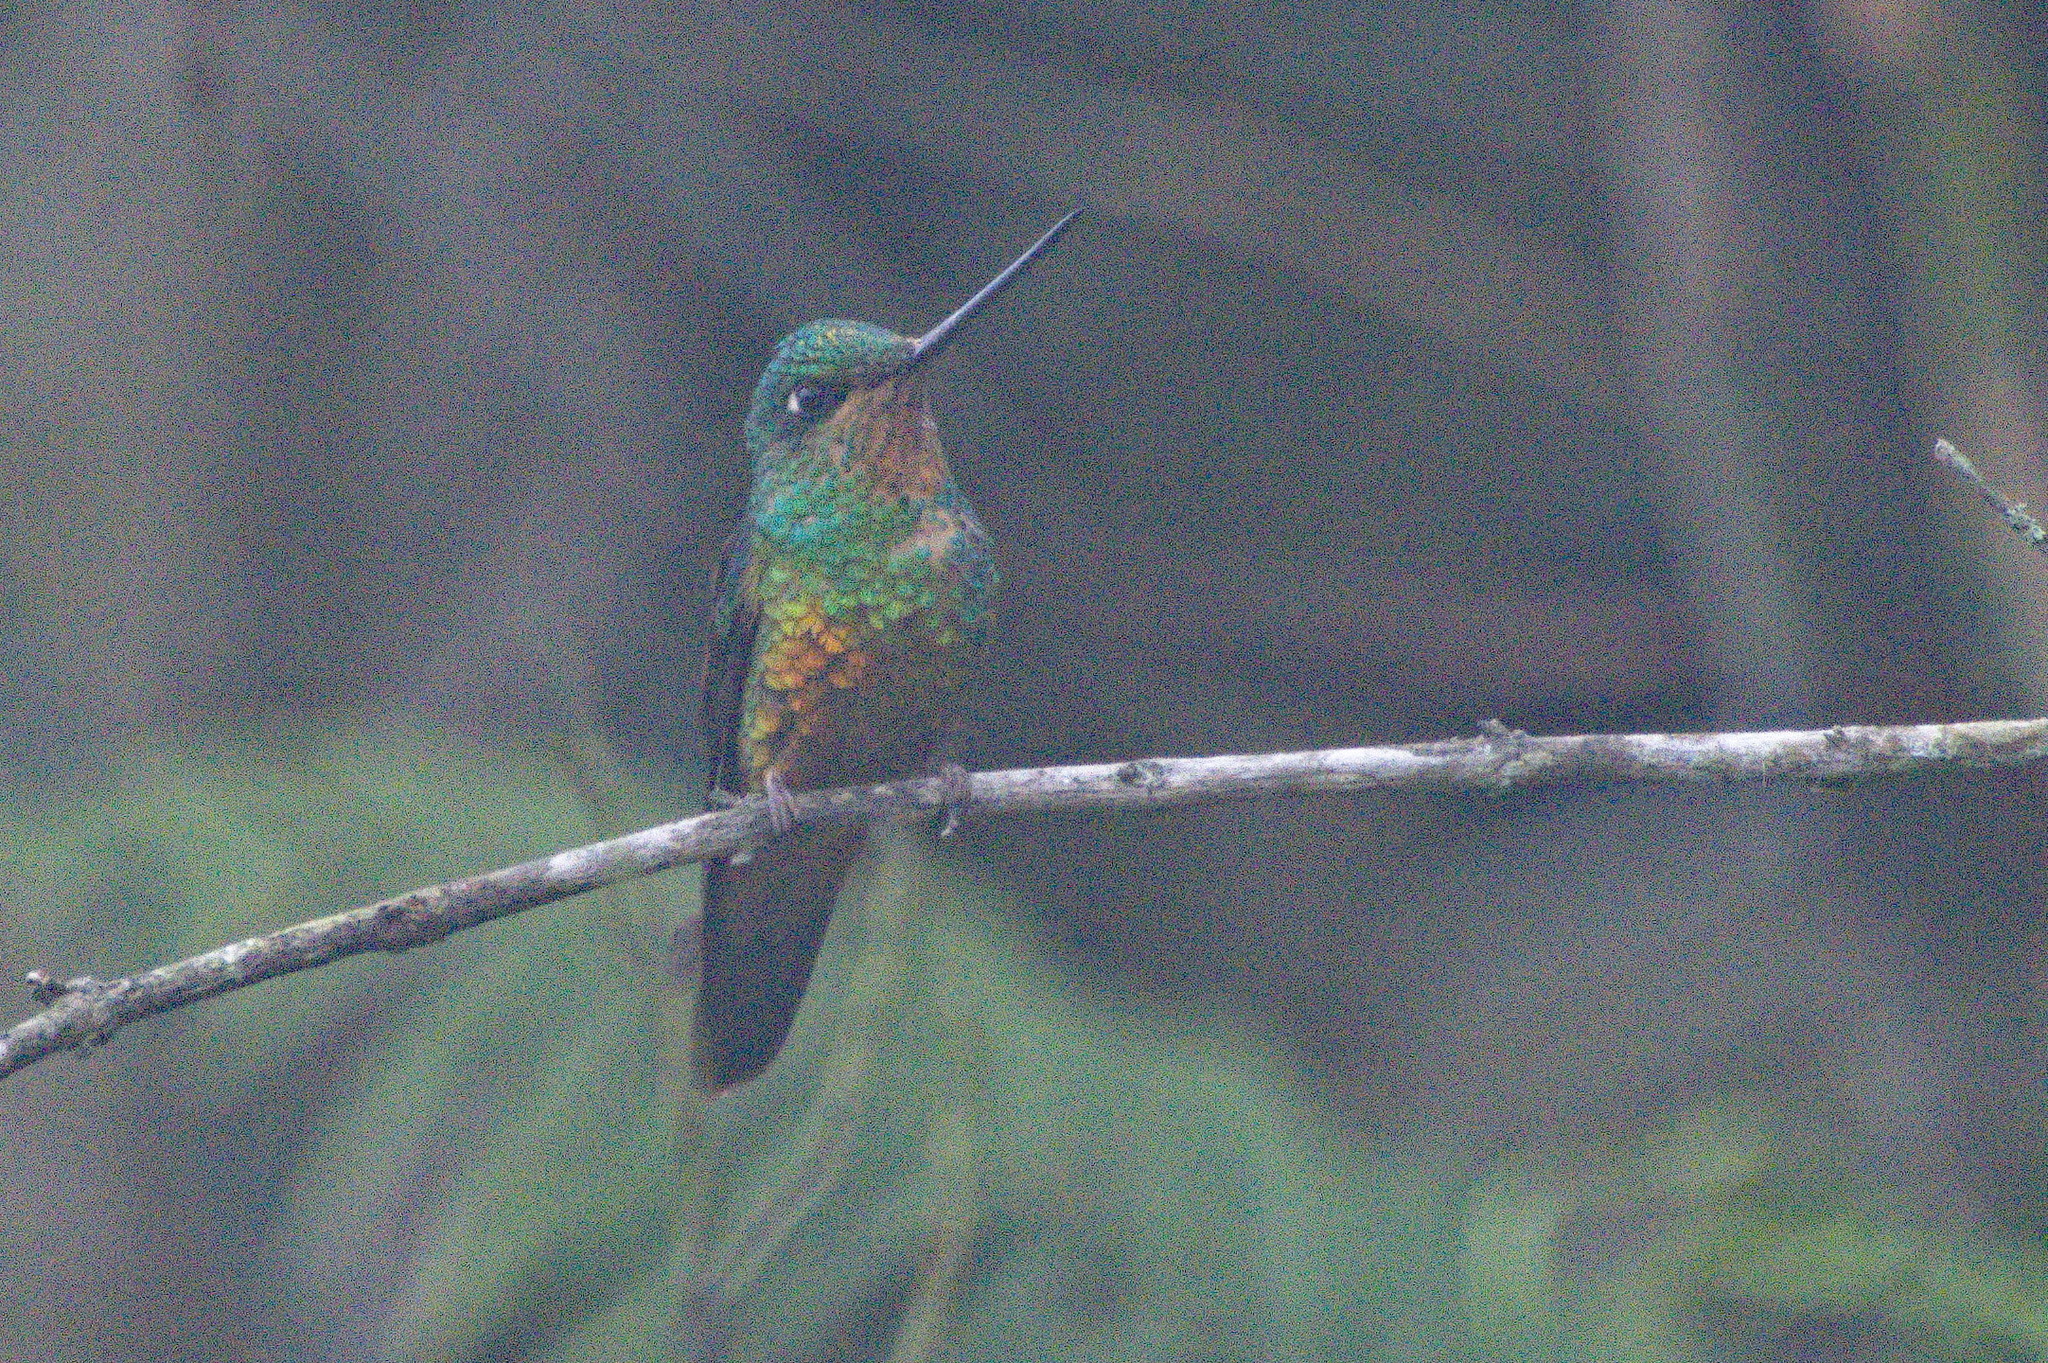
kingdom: Animalia
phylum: Chordata
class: Aves
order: Apodiformes
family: Trochilidae
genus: Coeligena
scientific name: Coeligena bonapartei
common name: Golden-bellied starfrontlet
